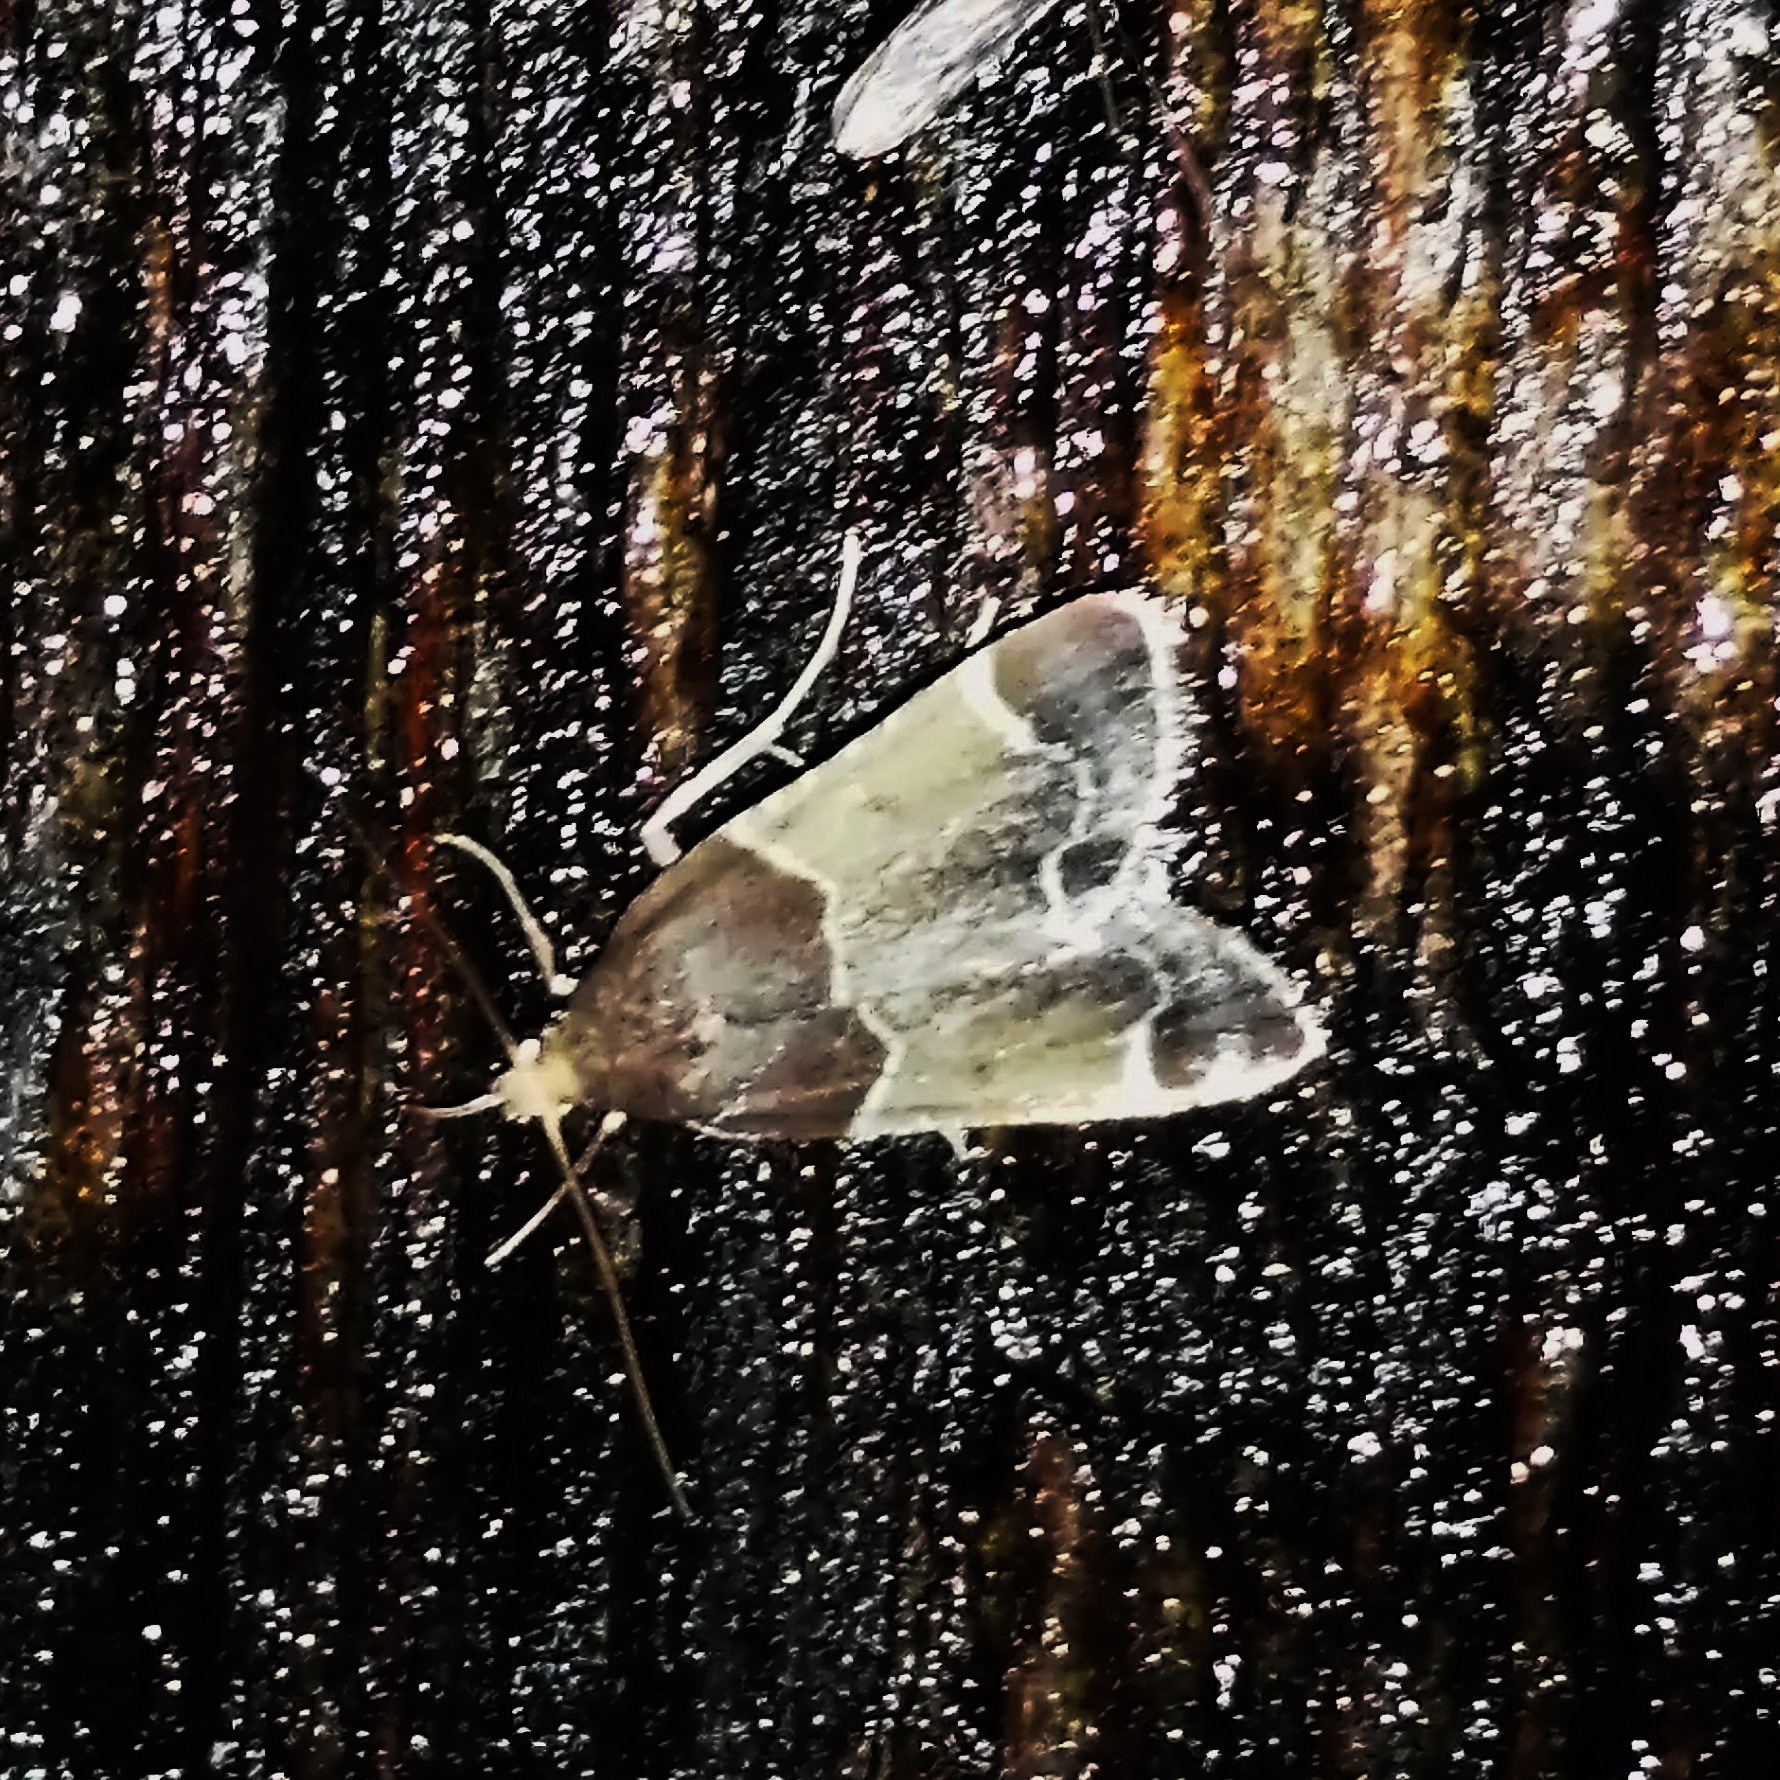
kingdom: Animalia
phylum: Arthropoda
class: Insecta
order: Lepidoptera
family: Pyralidae
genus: Pyralis
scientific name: Pyralis farinalis
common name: Meal moth
